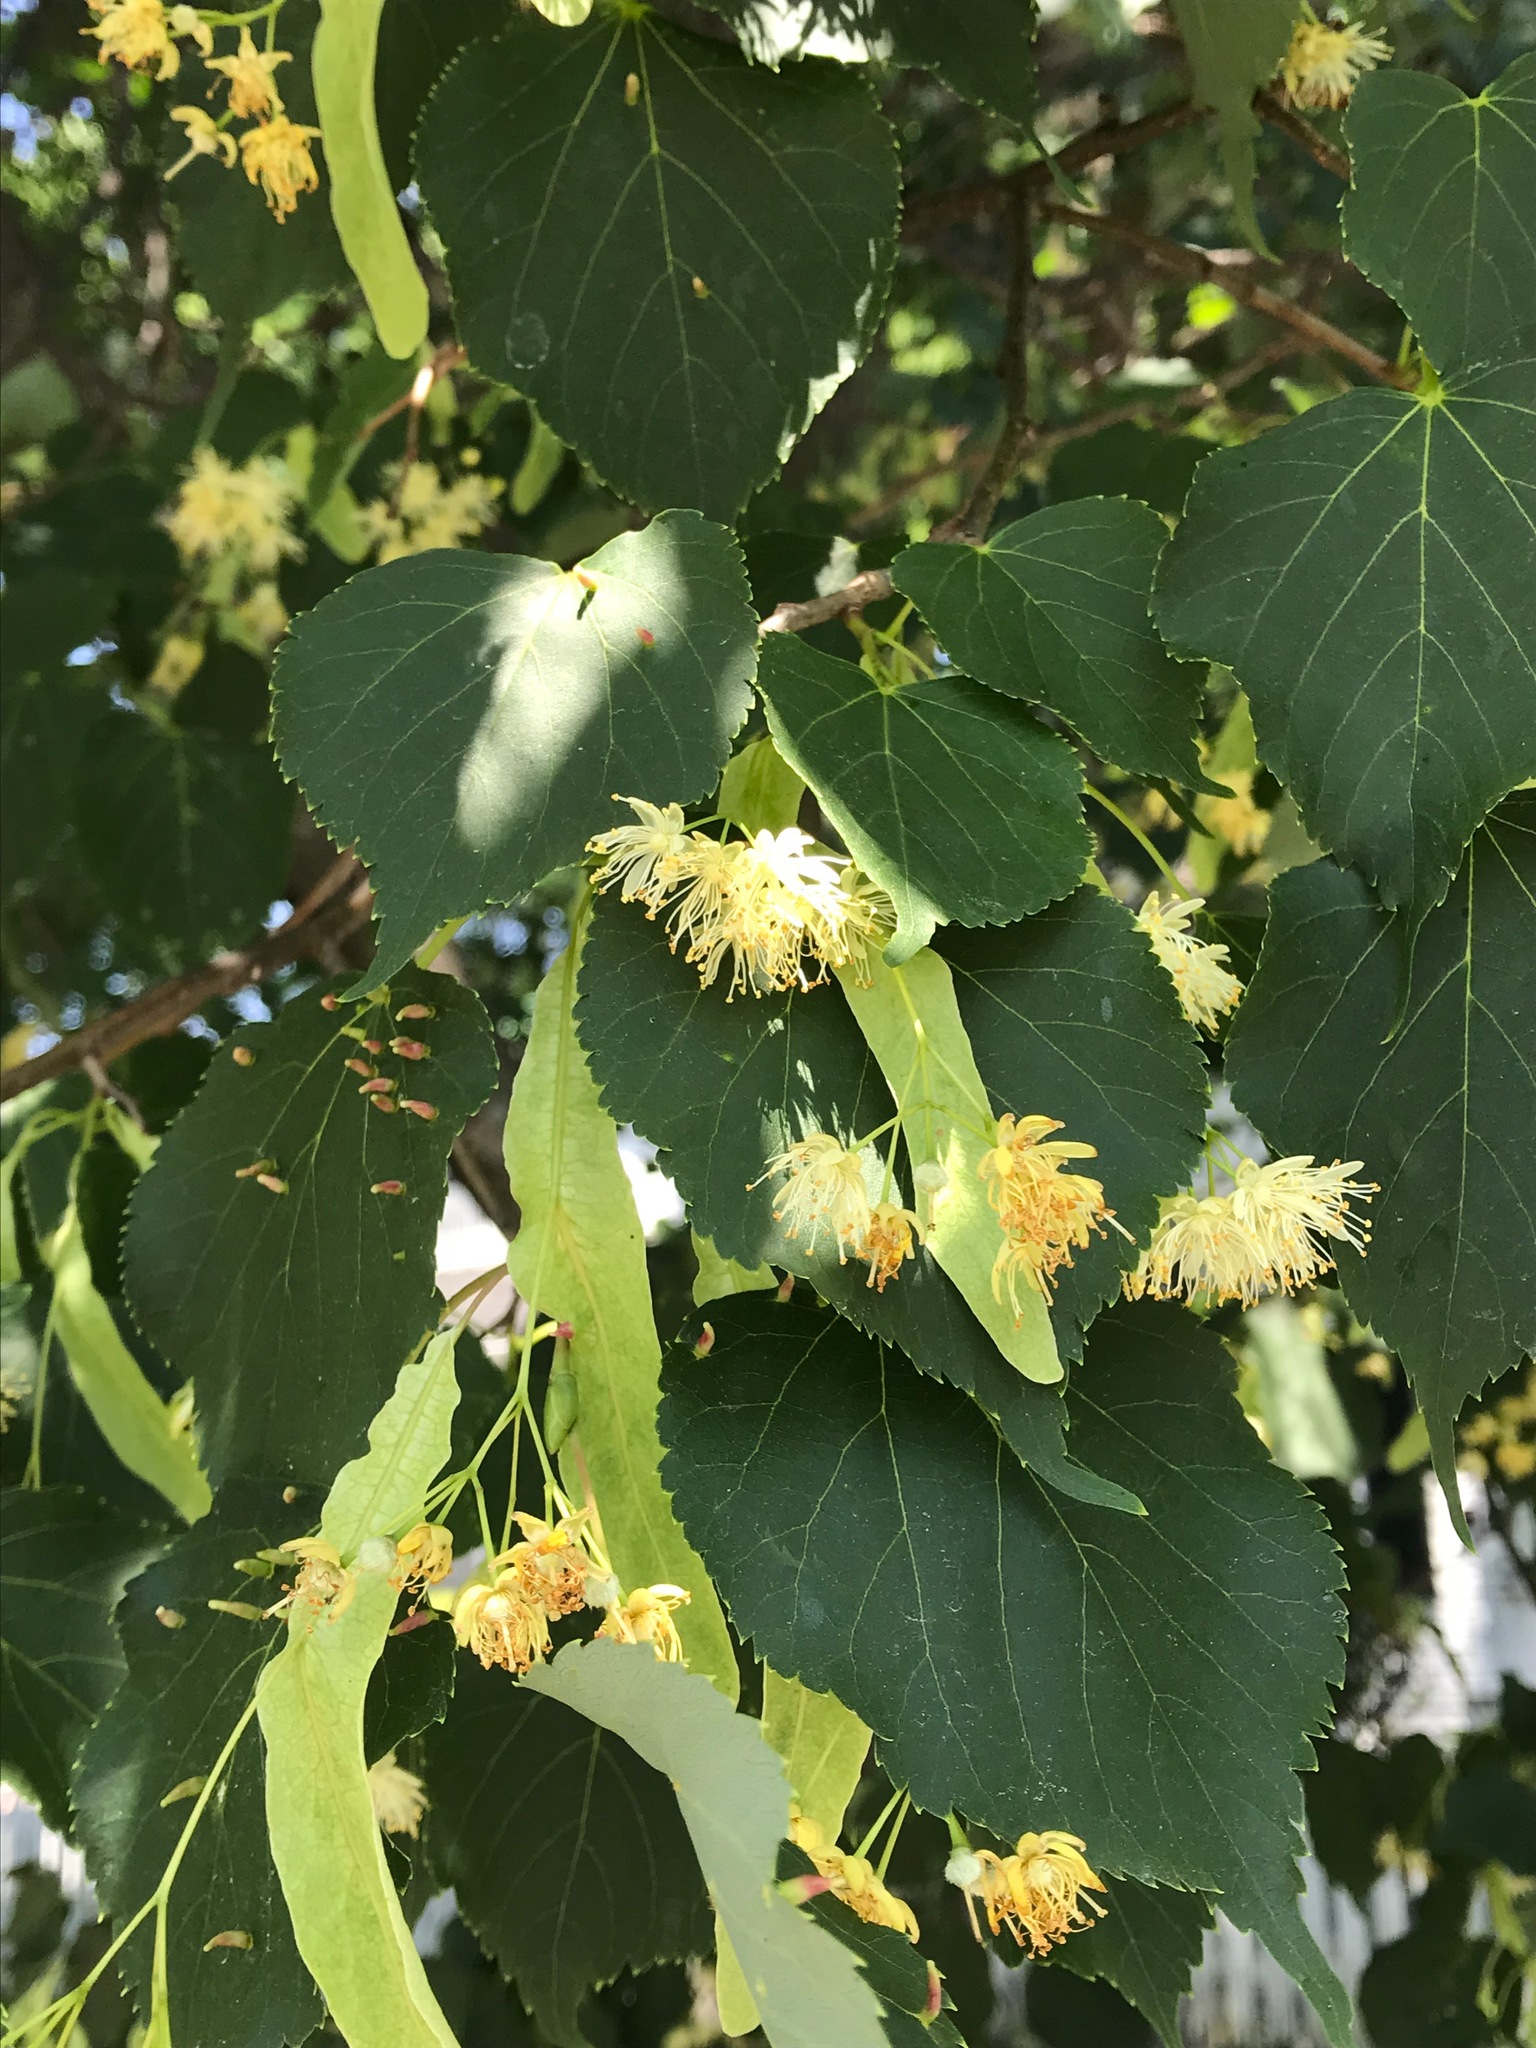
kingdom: Plantae
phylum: Tracheophyta
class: Magnoliopsida
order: Malvales
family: Malvaceae
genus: Tilia
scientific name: Tilia cordata
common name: Small-leaved lime
